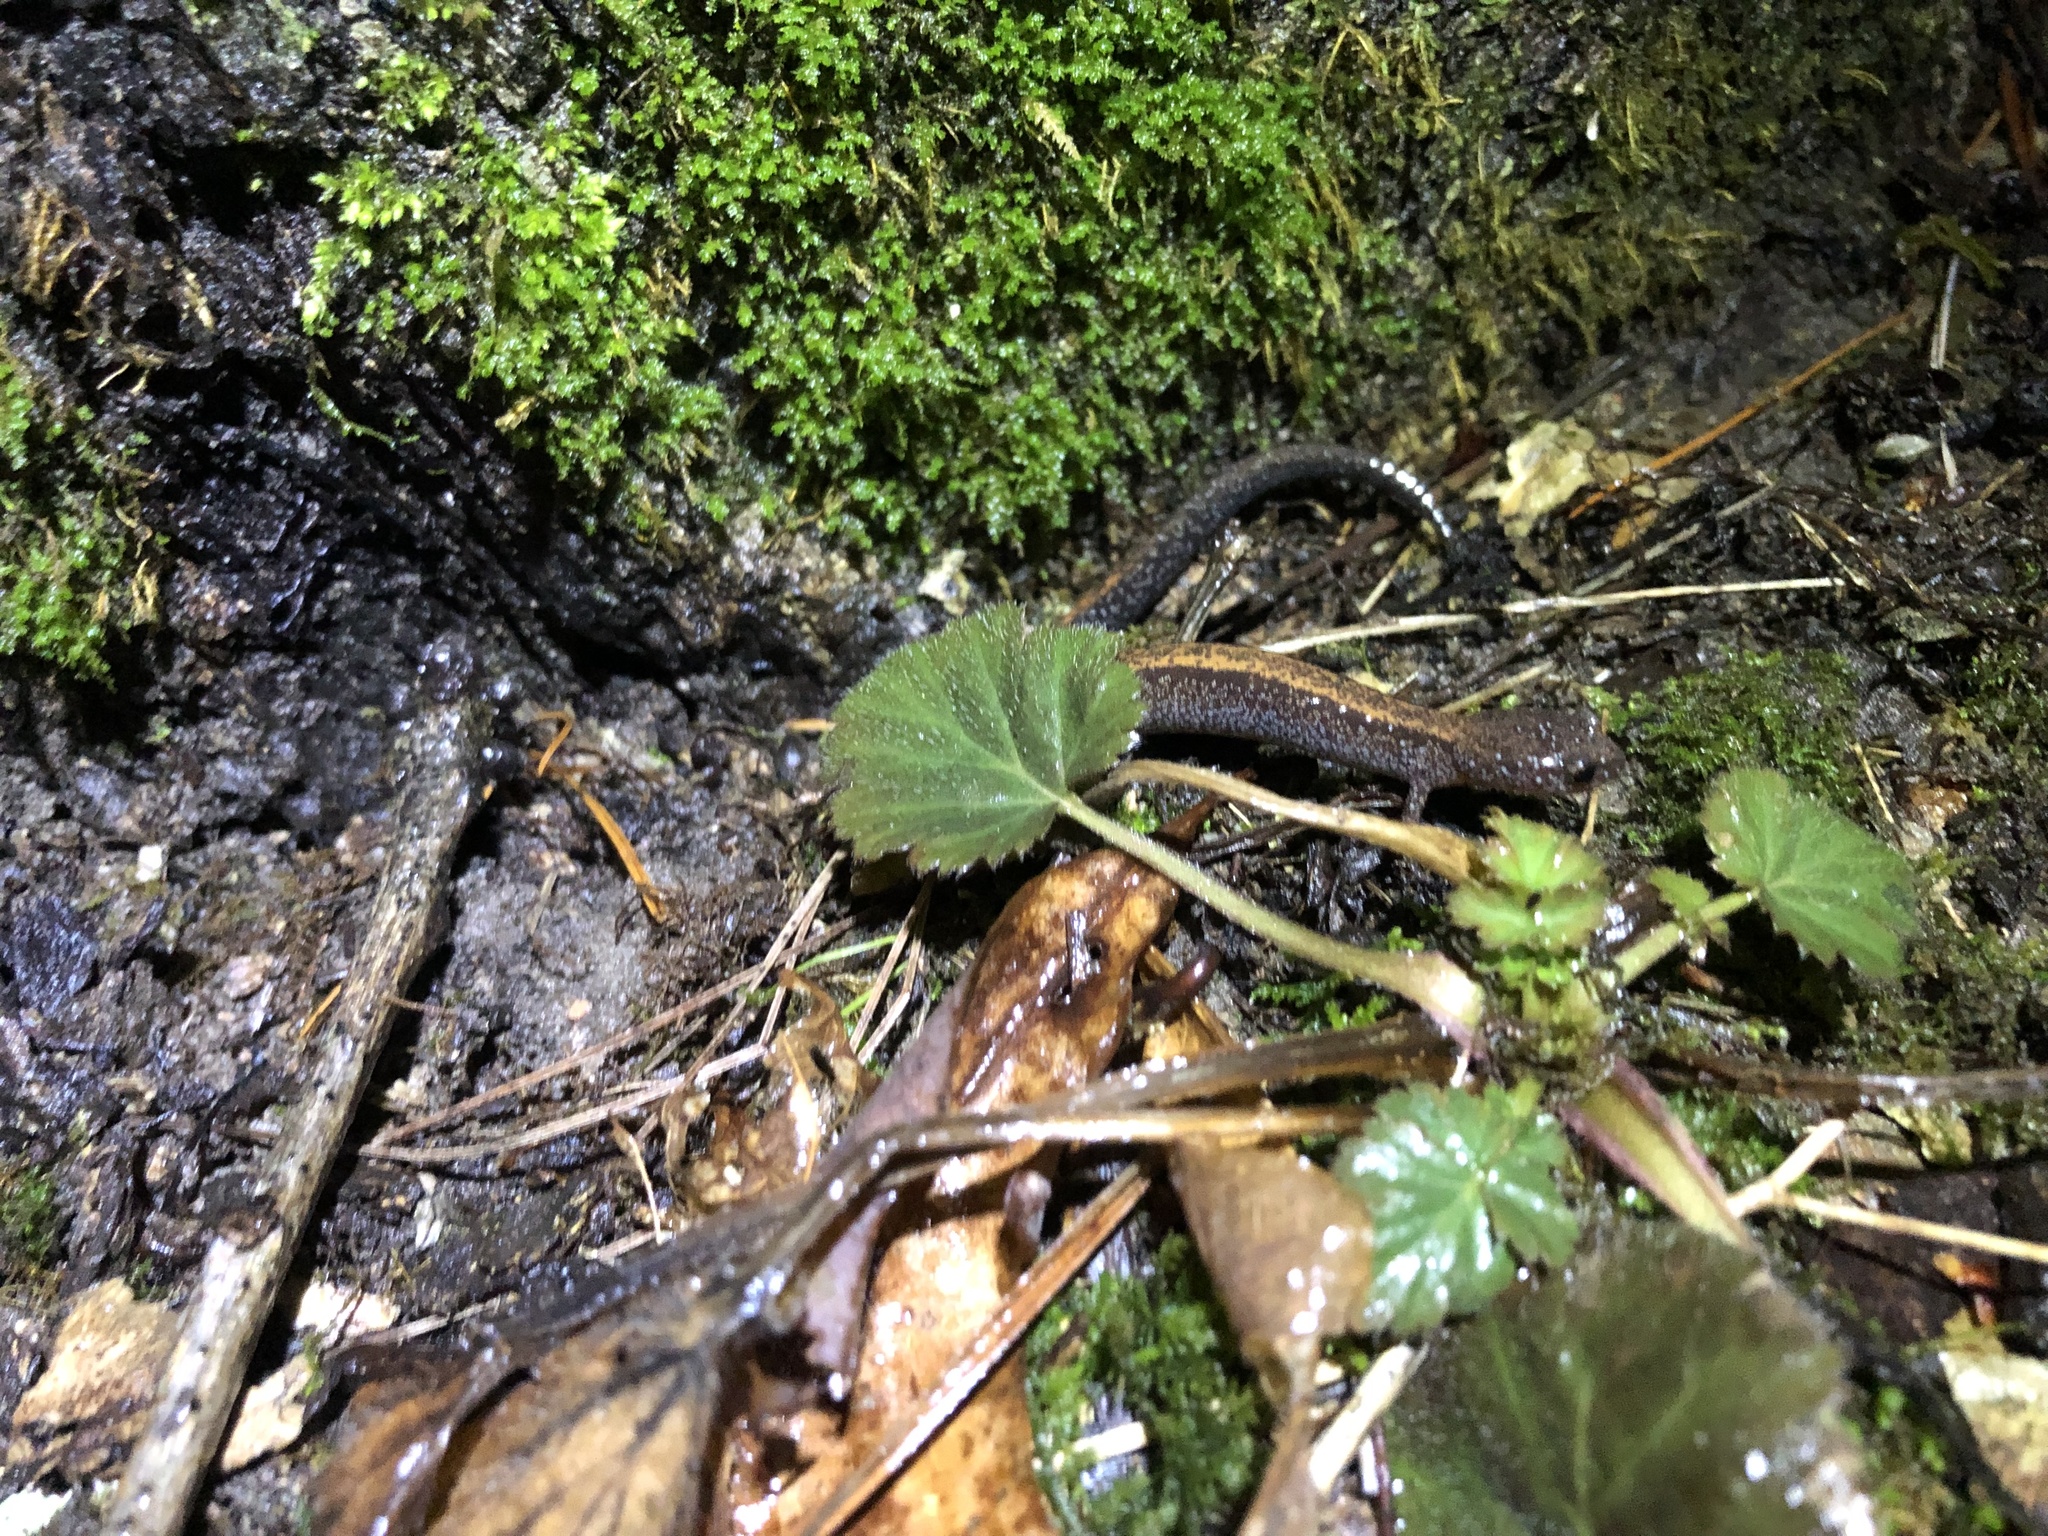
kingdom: Animalia
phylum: Chordata
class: Amphibia
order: Caudata
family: Plethodontidae
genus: Plethodon
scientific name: Plethodon cinereus
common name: Redback salamander
